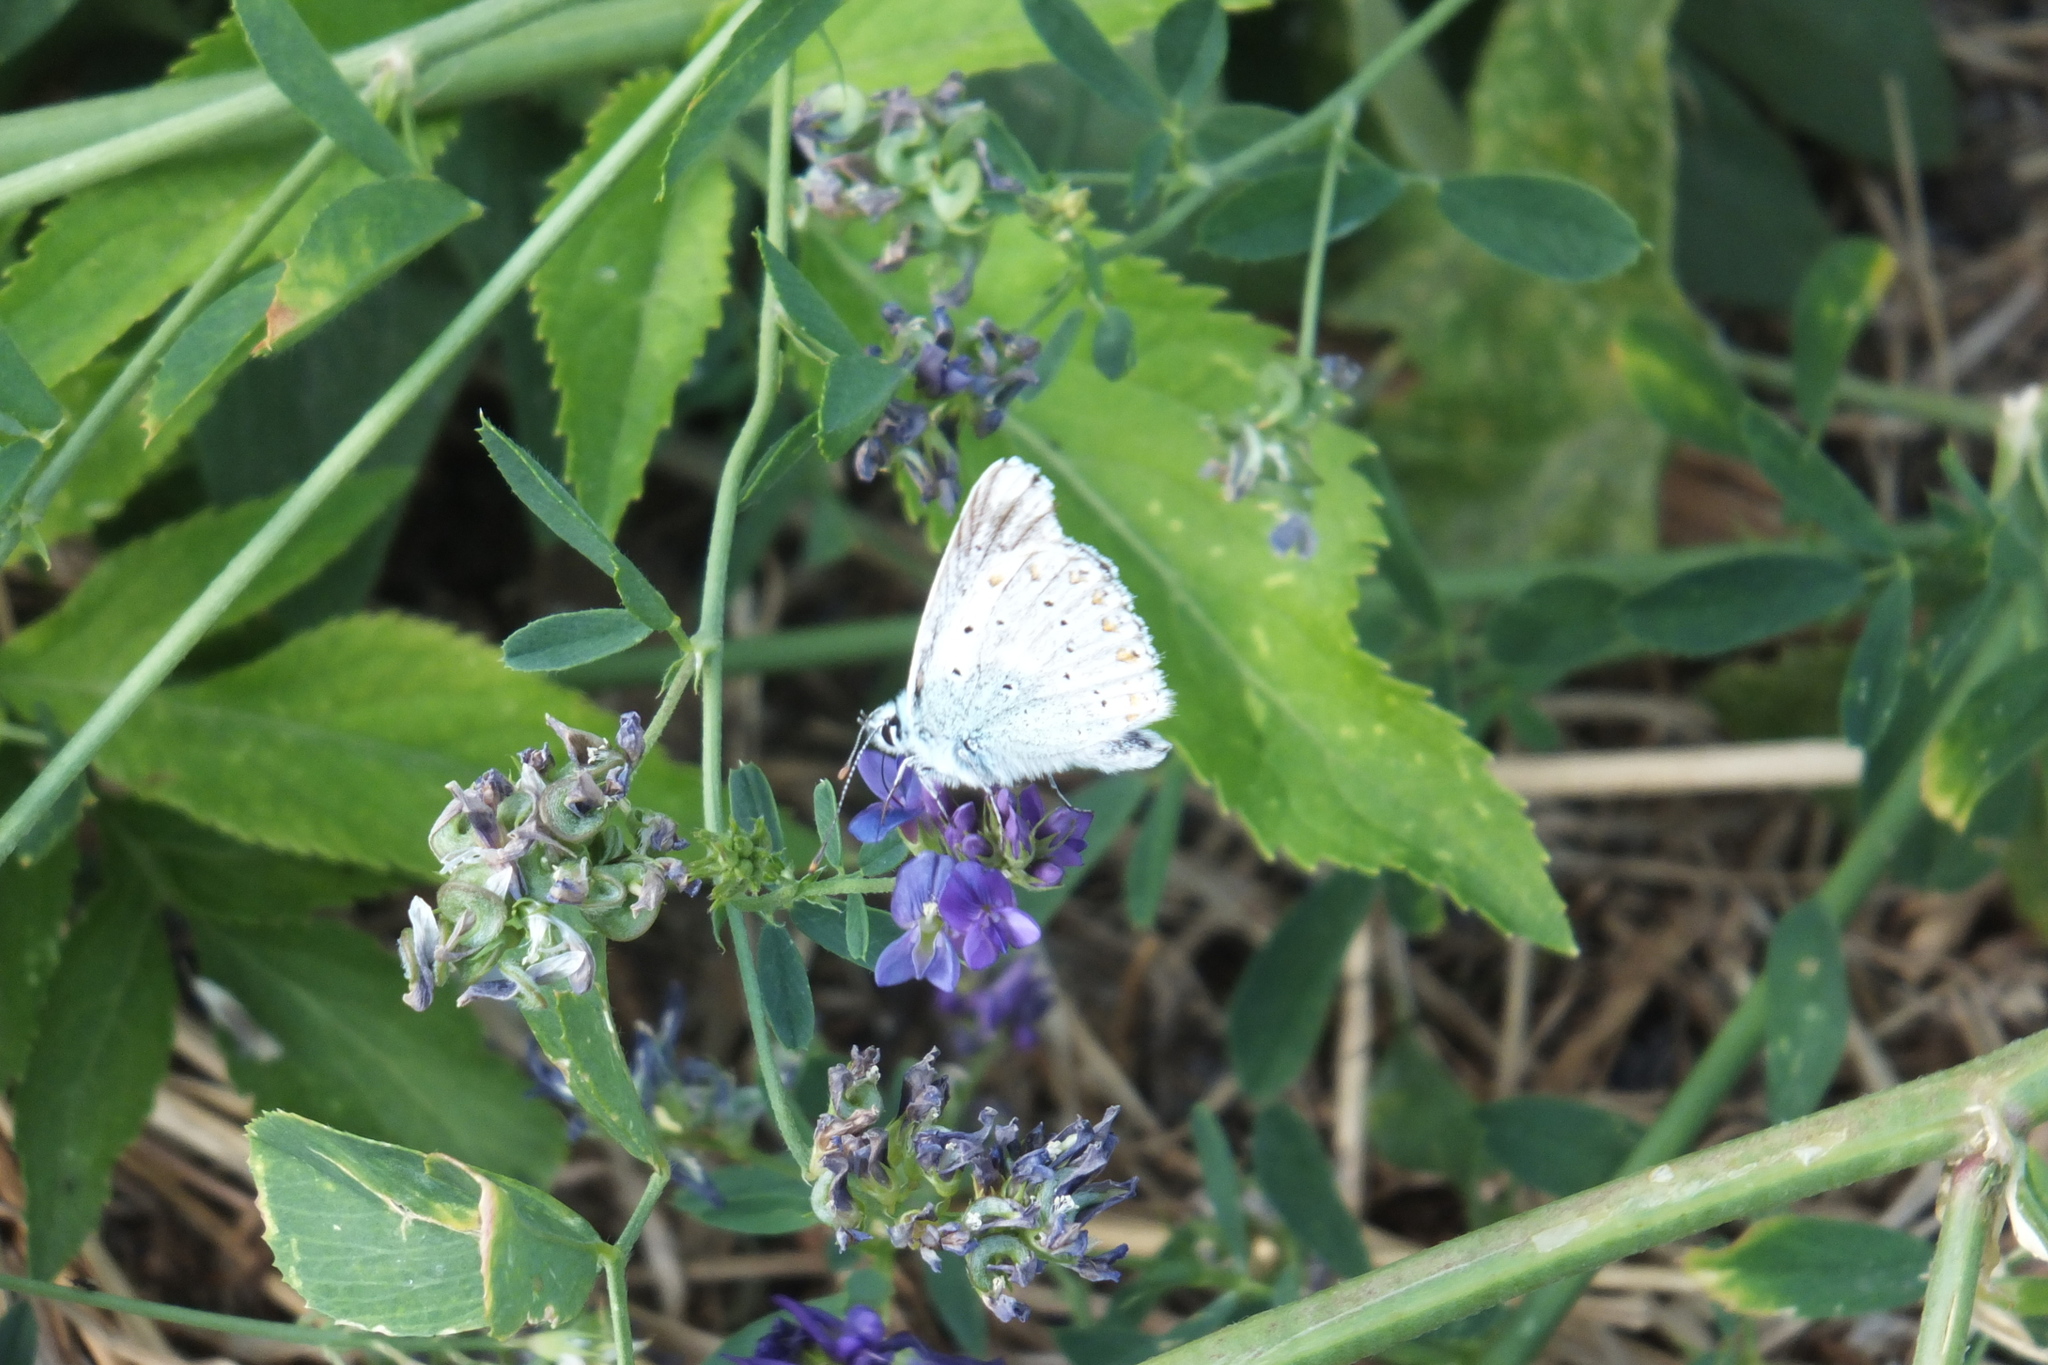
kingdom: Animalia
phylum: Arthropoda
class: Insecta
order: Lepidoptera
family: Lycaenidae
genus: Lysandra
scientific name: Lysandra coridon
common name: Chalkhill blue
